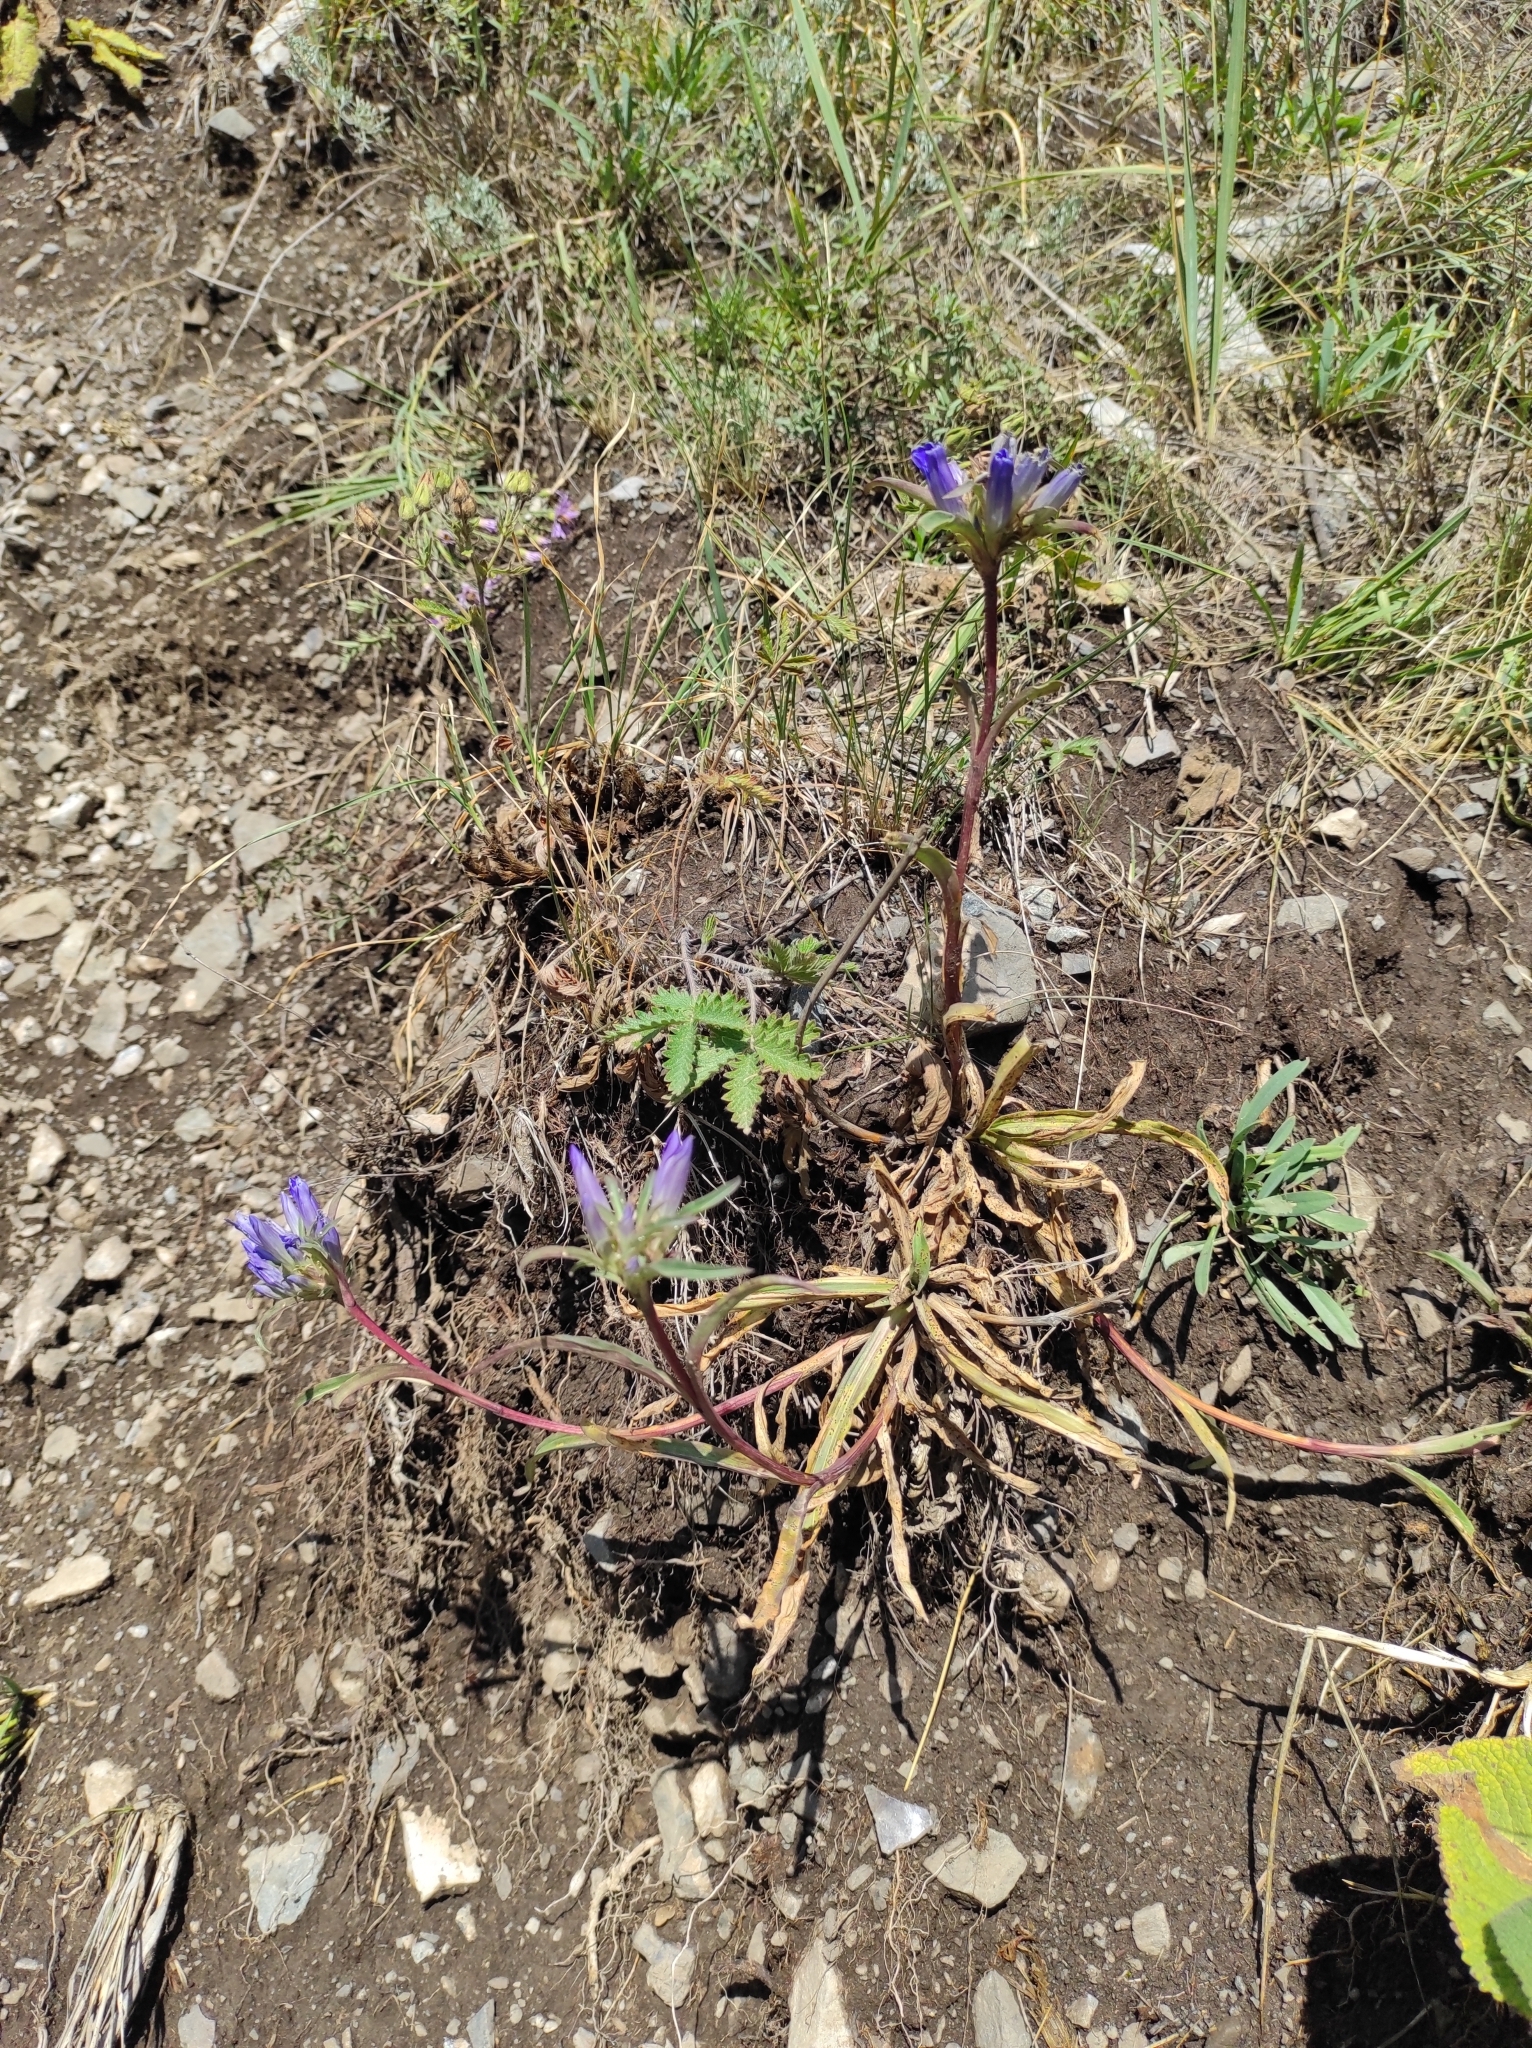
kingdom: Plantae
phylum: Tracheophyta
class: Magnoliopsida
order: Gentianales
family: Gentianaceae
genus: Gentiana
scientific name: Gentiana tianschanica
